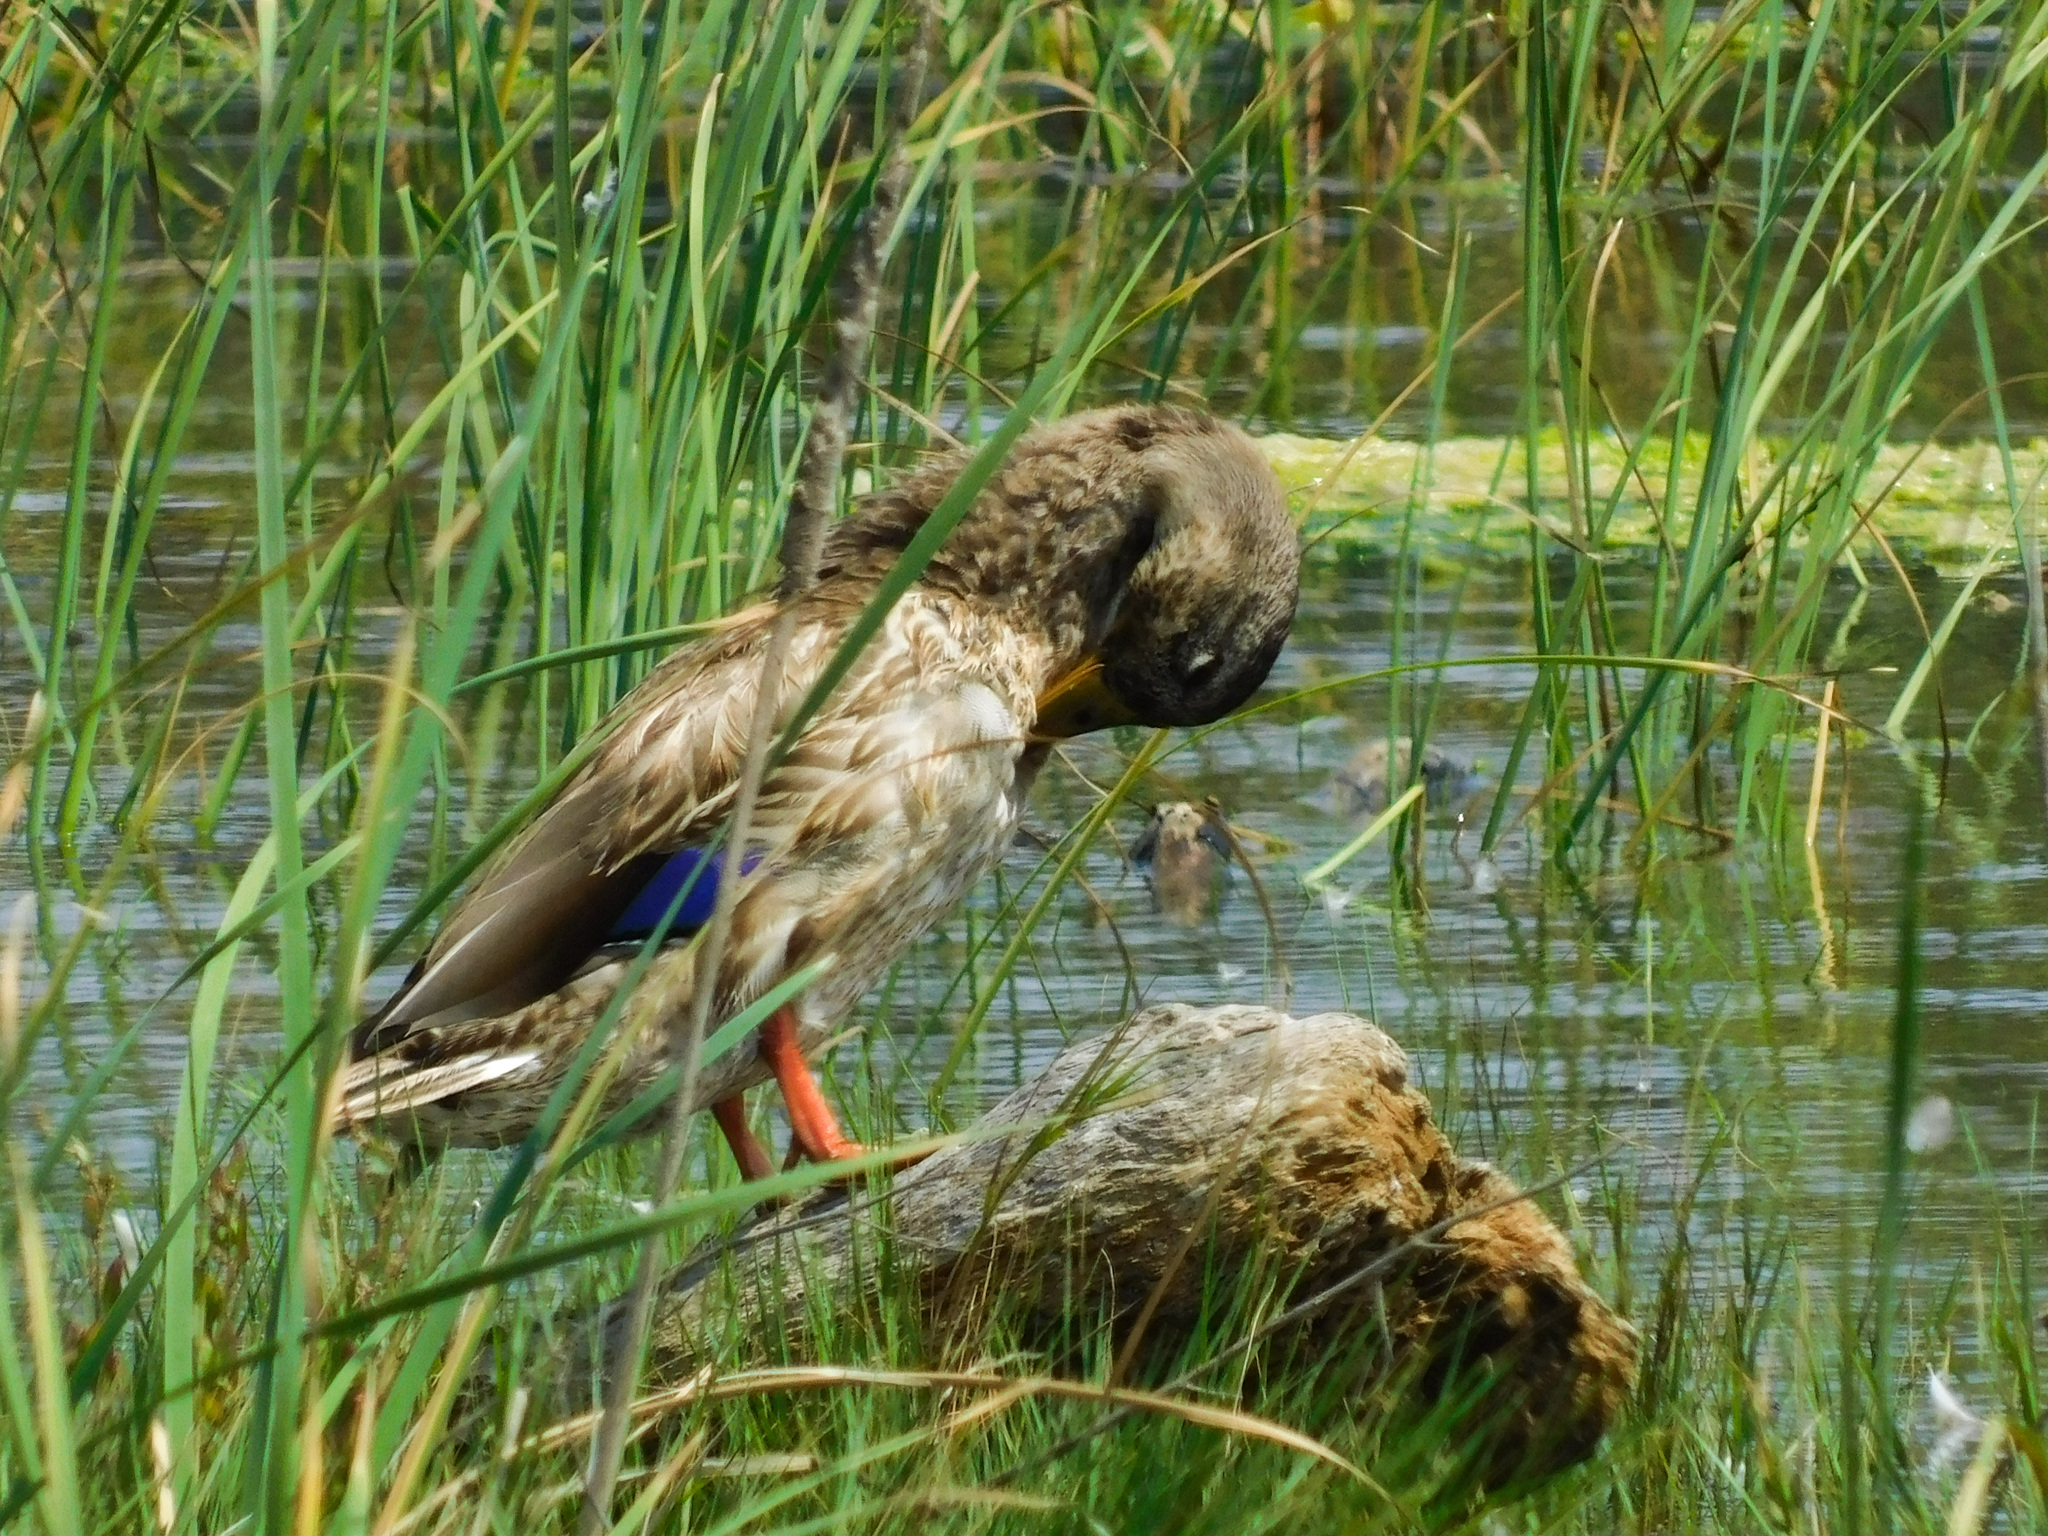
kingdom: Animalia
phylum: Chordata
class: Aves
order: Anseriformes
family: Anatidae
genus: Anas
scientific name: Anas platyrhynchos
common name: Mallard
